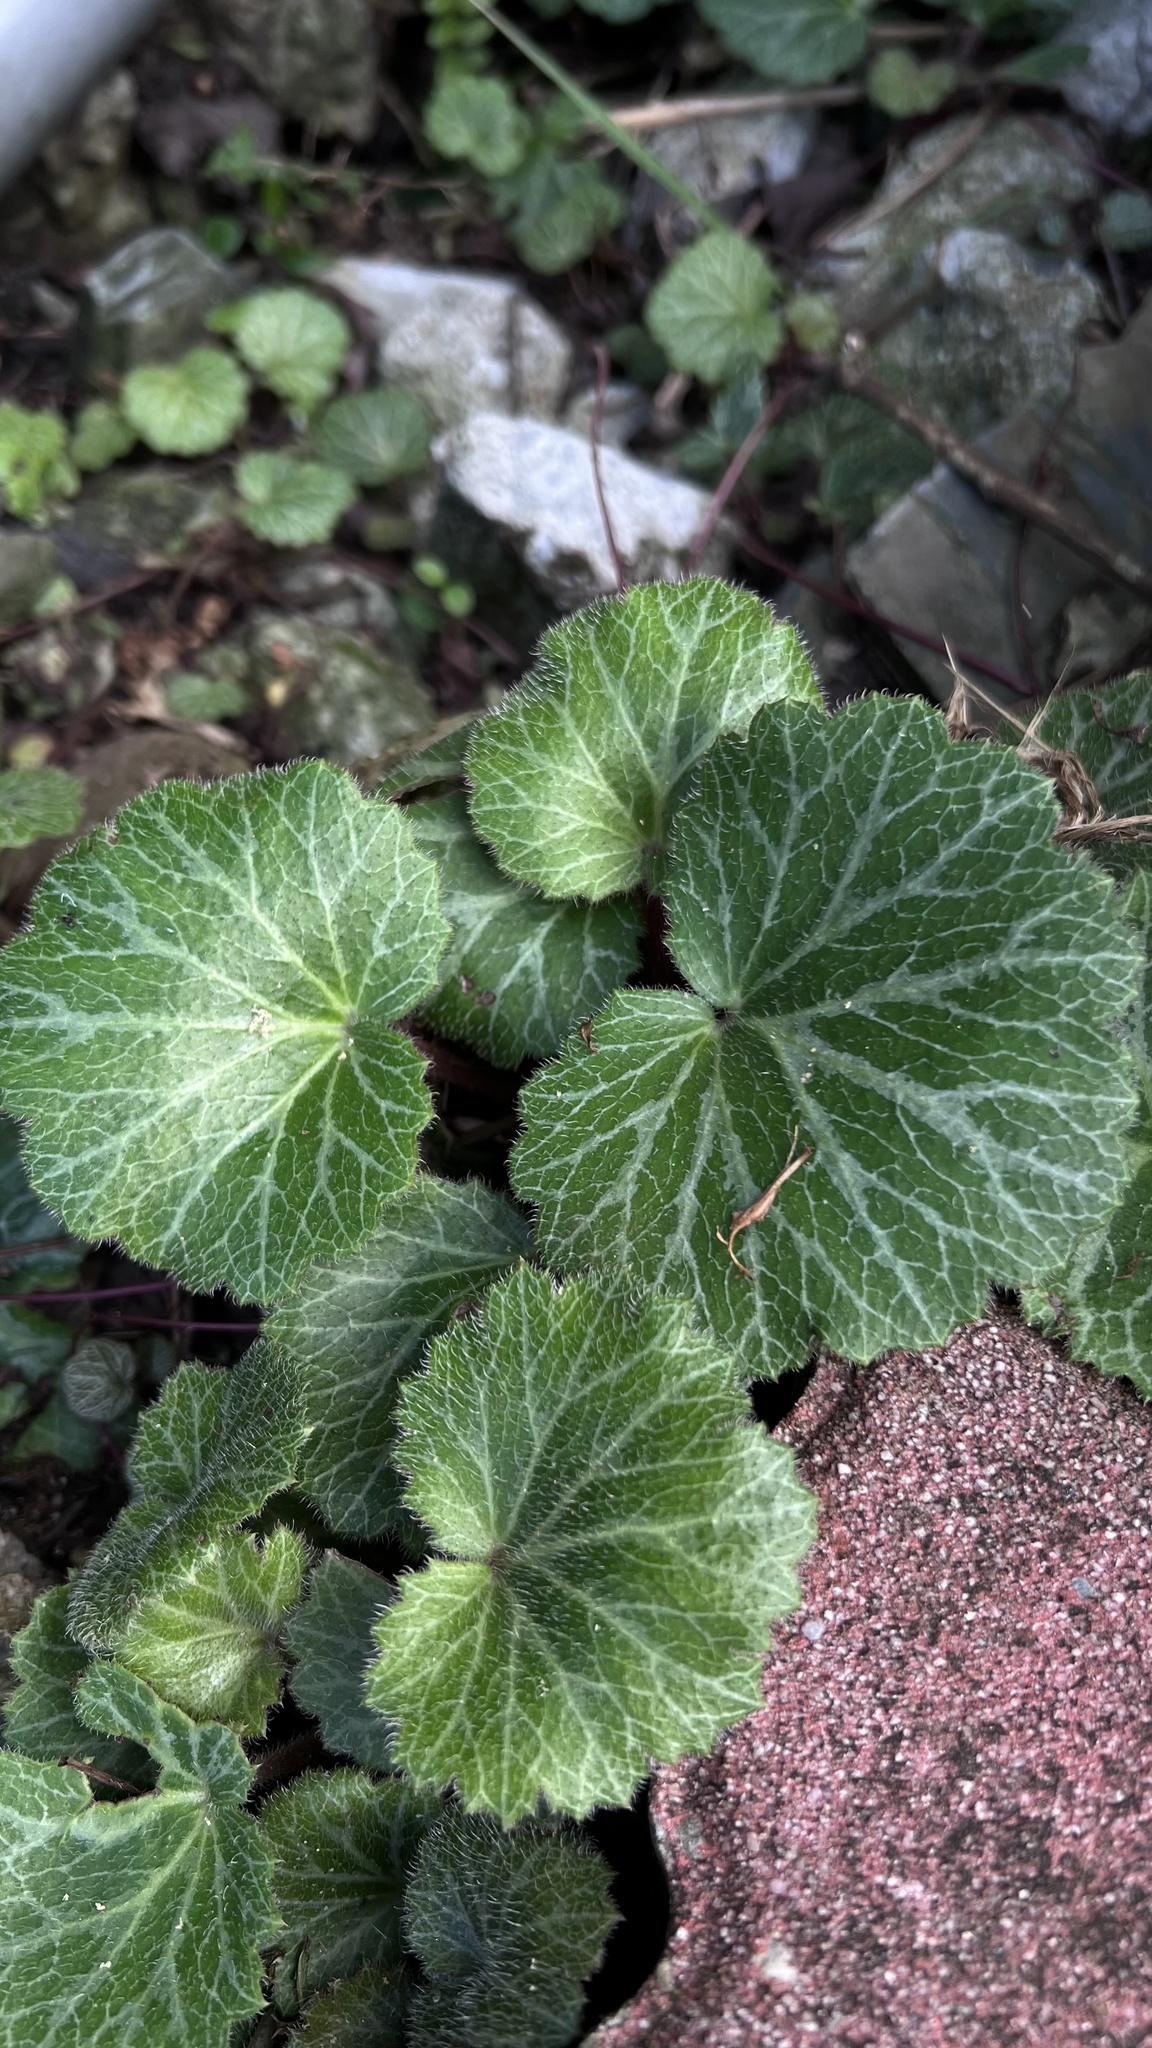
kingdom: Plantae
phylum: Tracheophyta
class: Magnoliopsida
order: Saxifragales
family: Saxifragaceae
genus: Saxifraga
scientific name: Saxifraga stolonifera
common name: Creeping saxifrage
